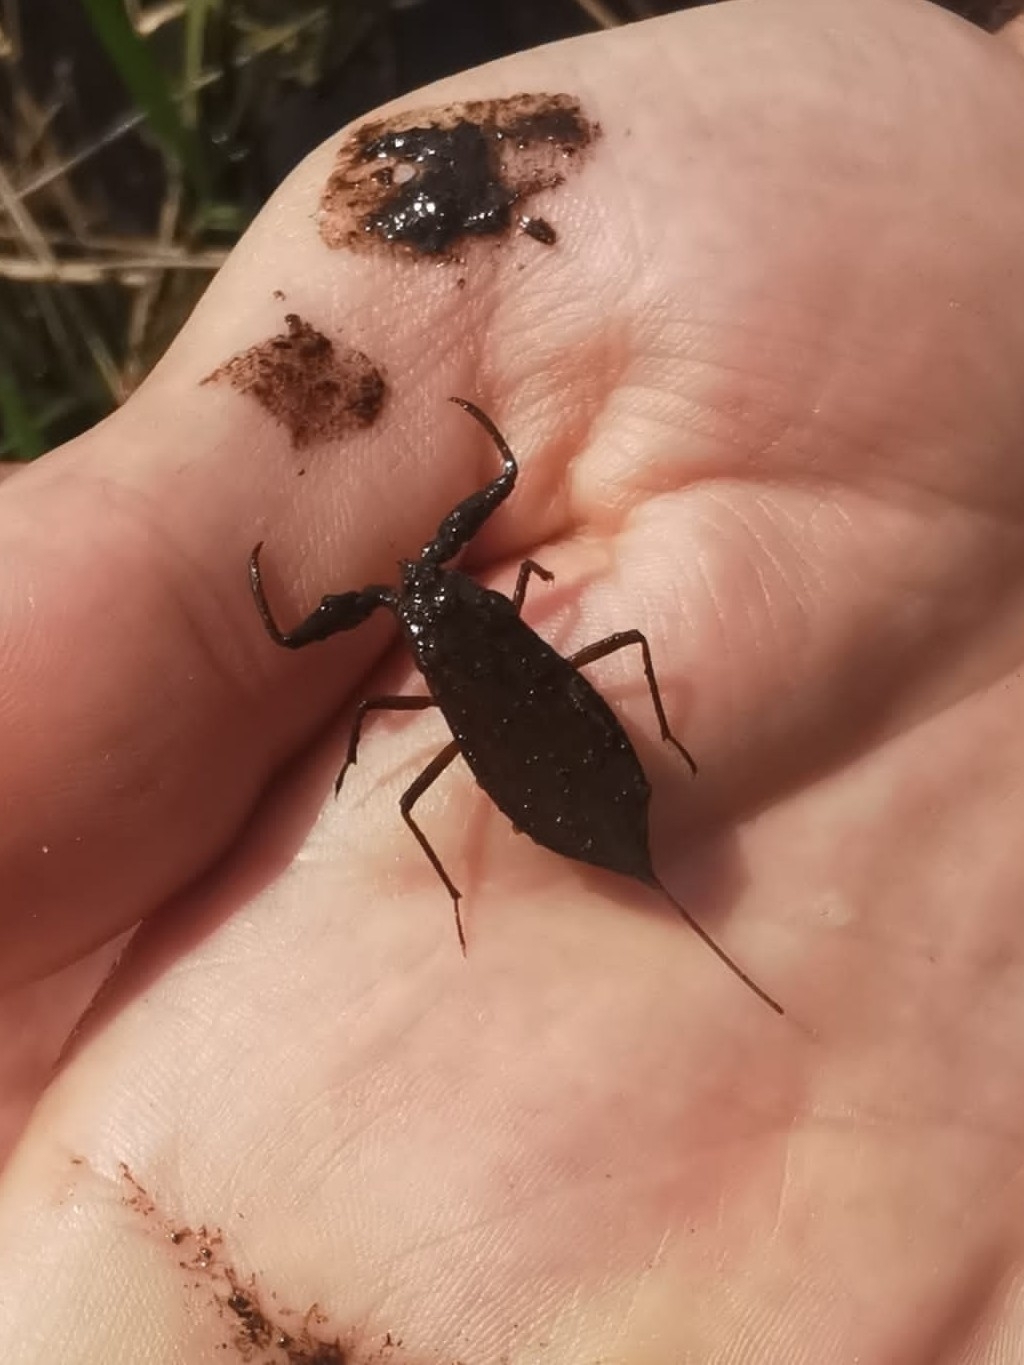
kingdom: Animalia
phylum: Arthropoda
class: Insecta
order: Hemiptera
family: Nepidae
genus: Nepa
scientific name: Nepa cinerea
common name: Water scorpion
